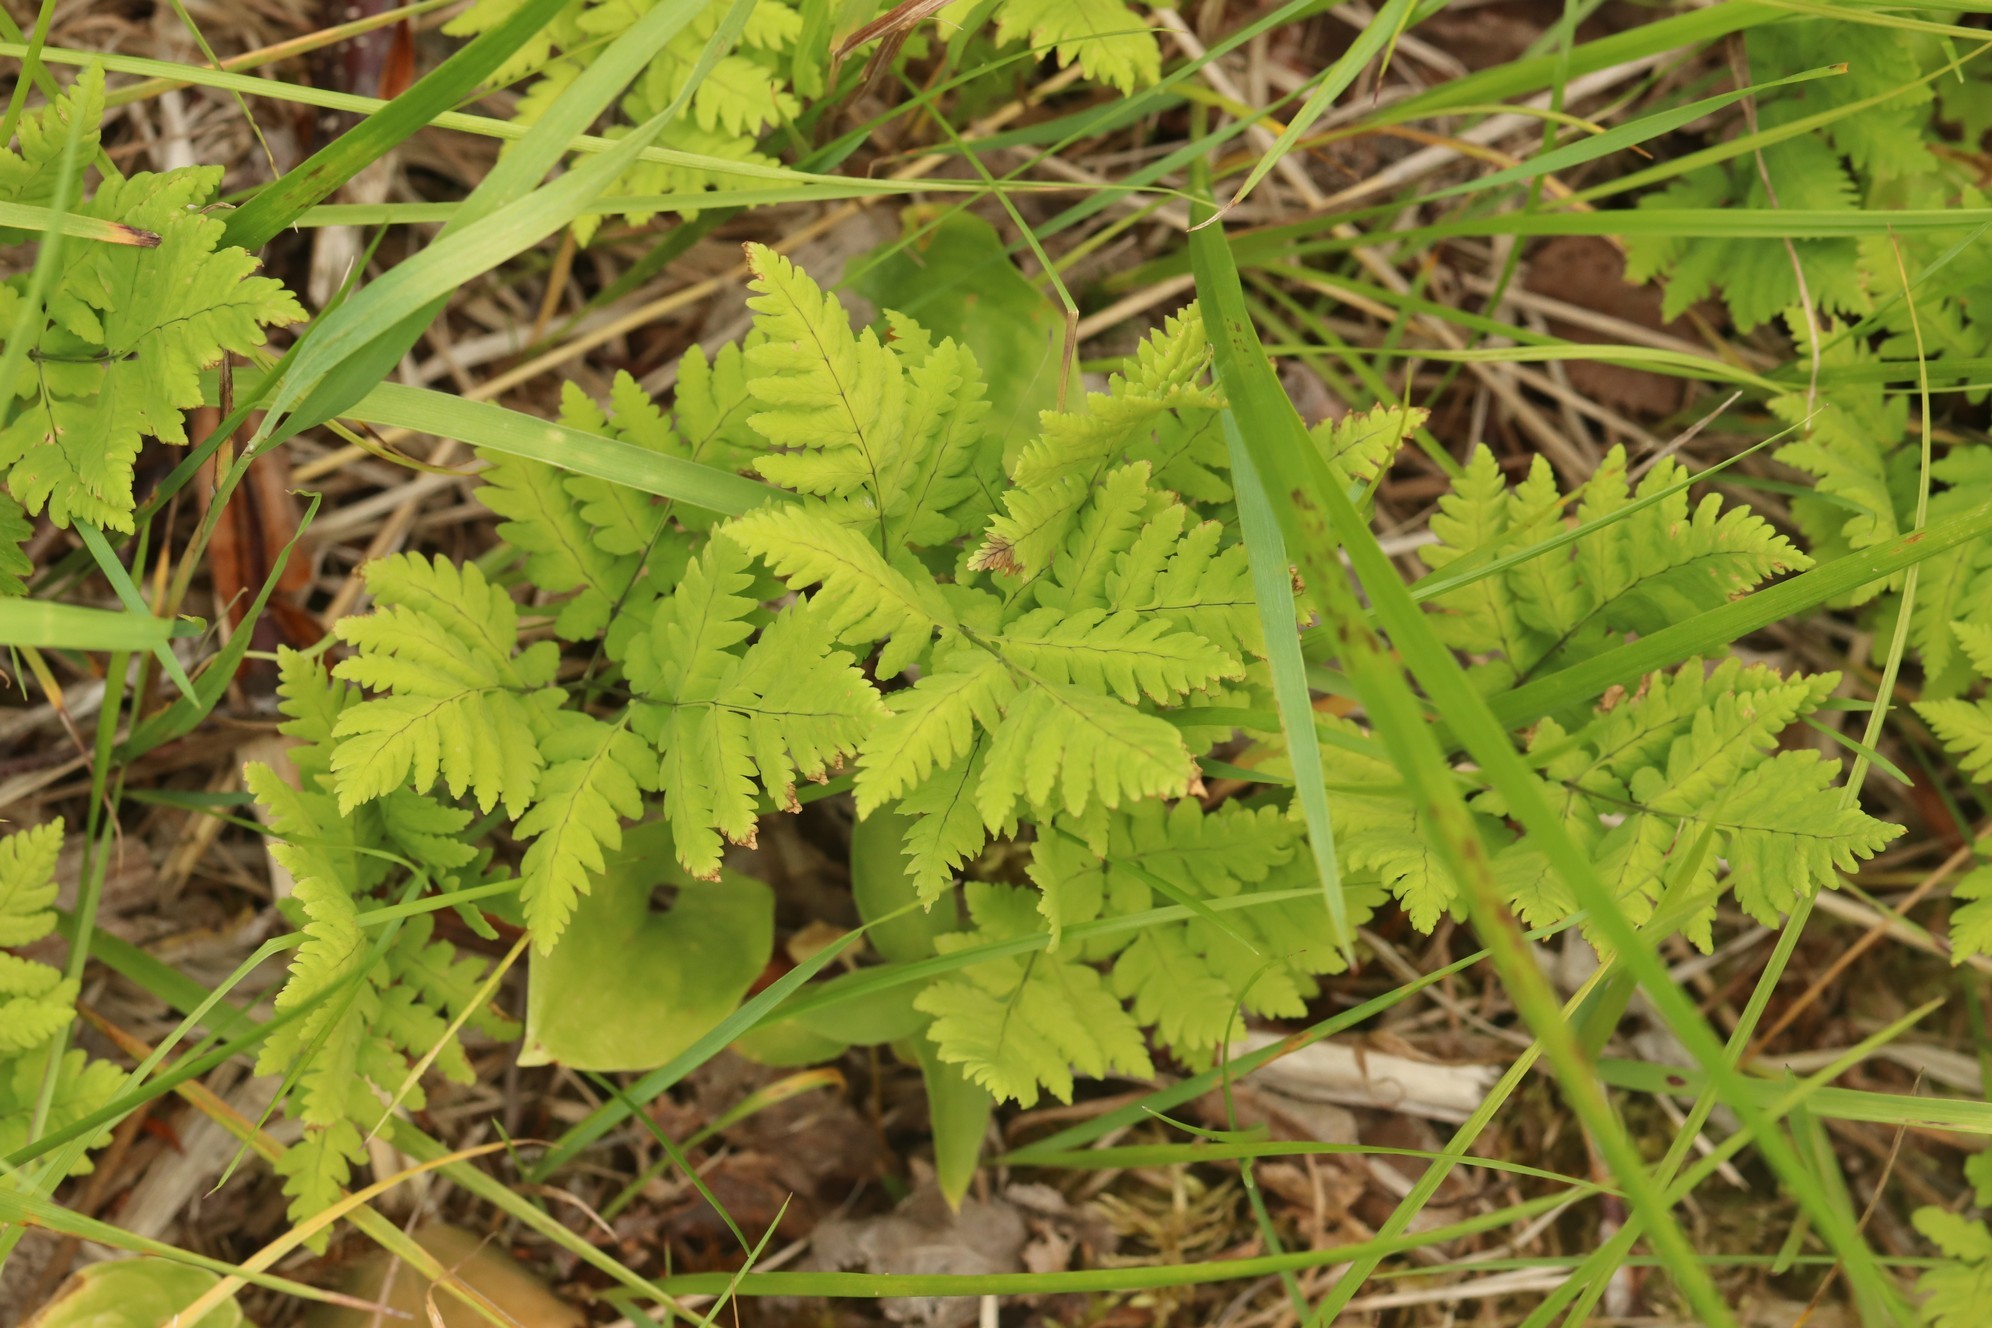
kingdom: Plantae
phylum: Tracheophyta
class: Polypodiopsida
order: Polypodiales
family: Cystopteridaceae
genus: Gymnocarpium
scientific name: Gymnocarpium dryopteris
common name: Oak fern
